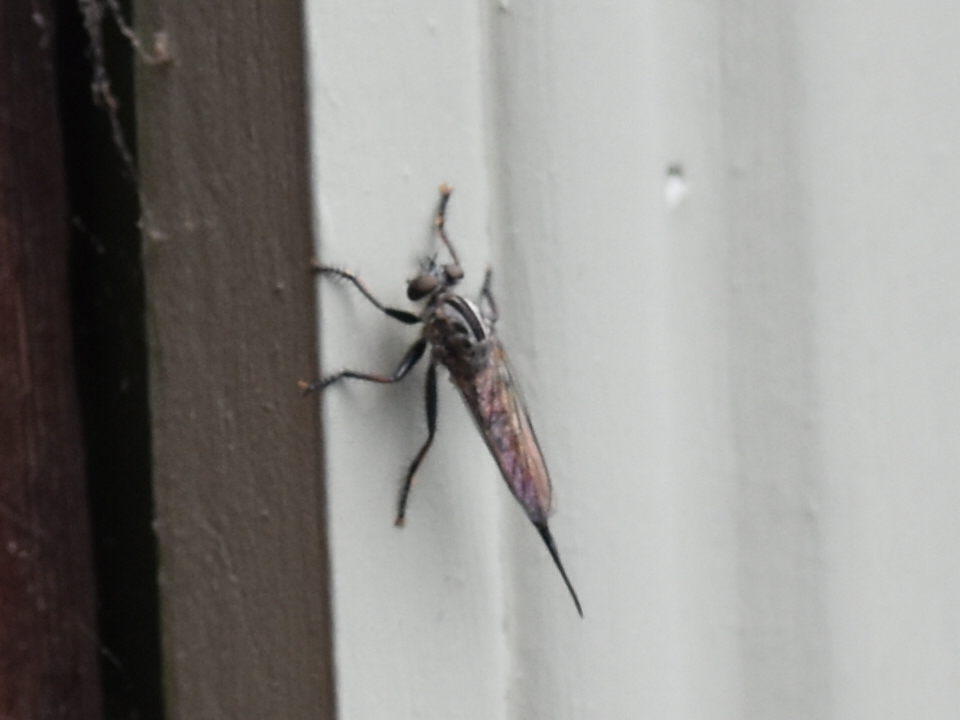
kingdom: Animalia
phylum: Arthropoda
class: Insecta
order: Diptera
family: Asilidae
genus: Efferia
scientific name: Efferia aestuans
